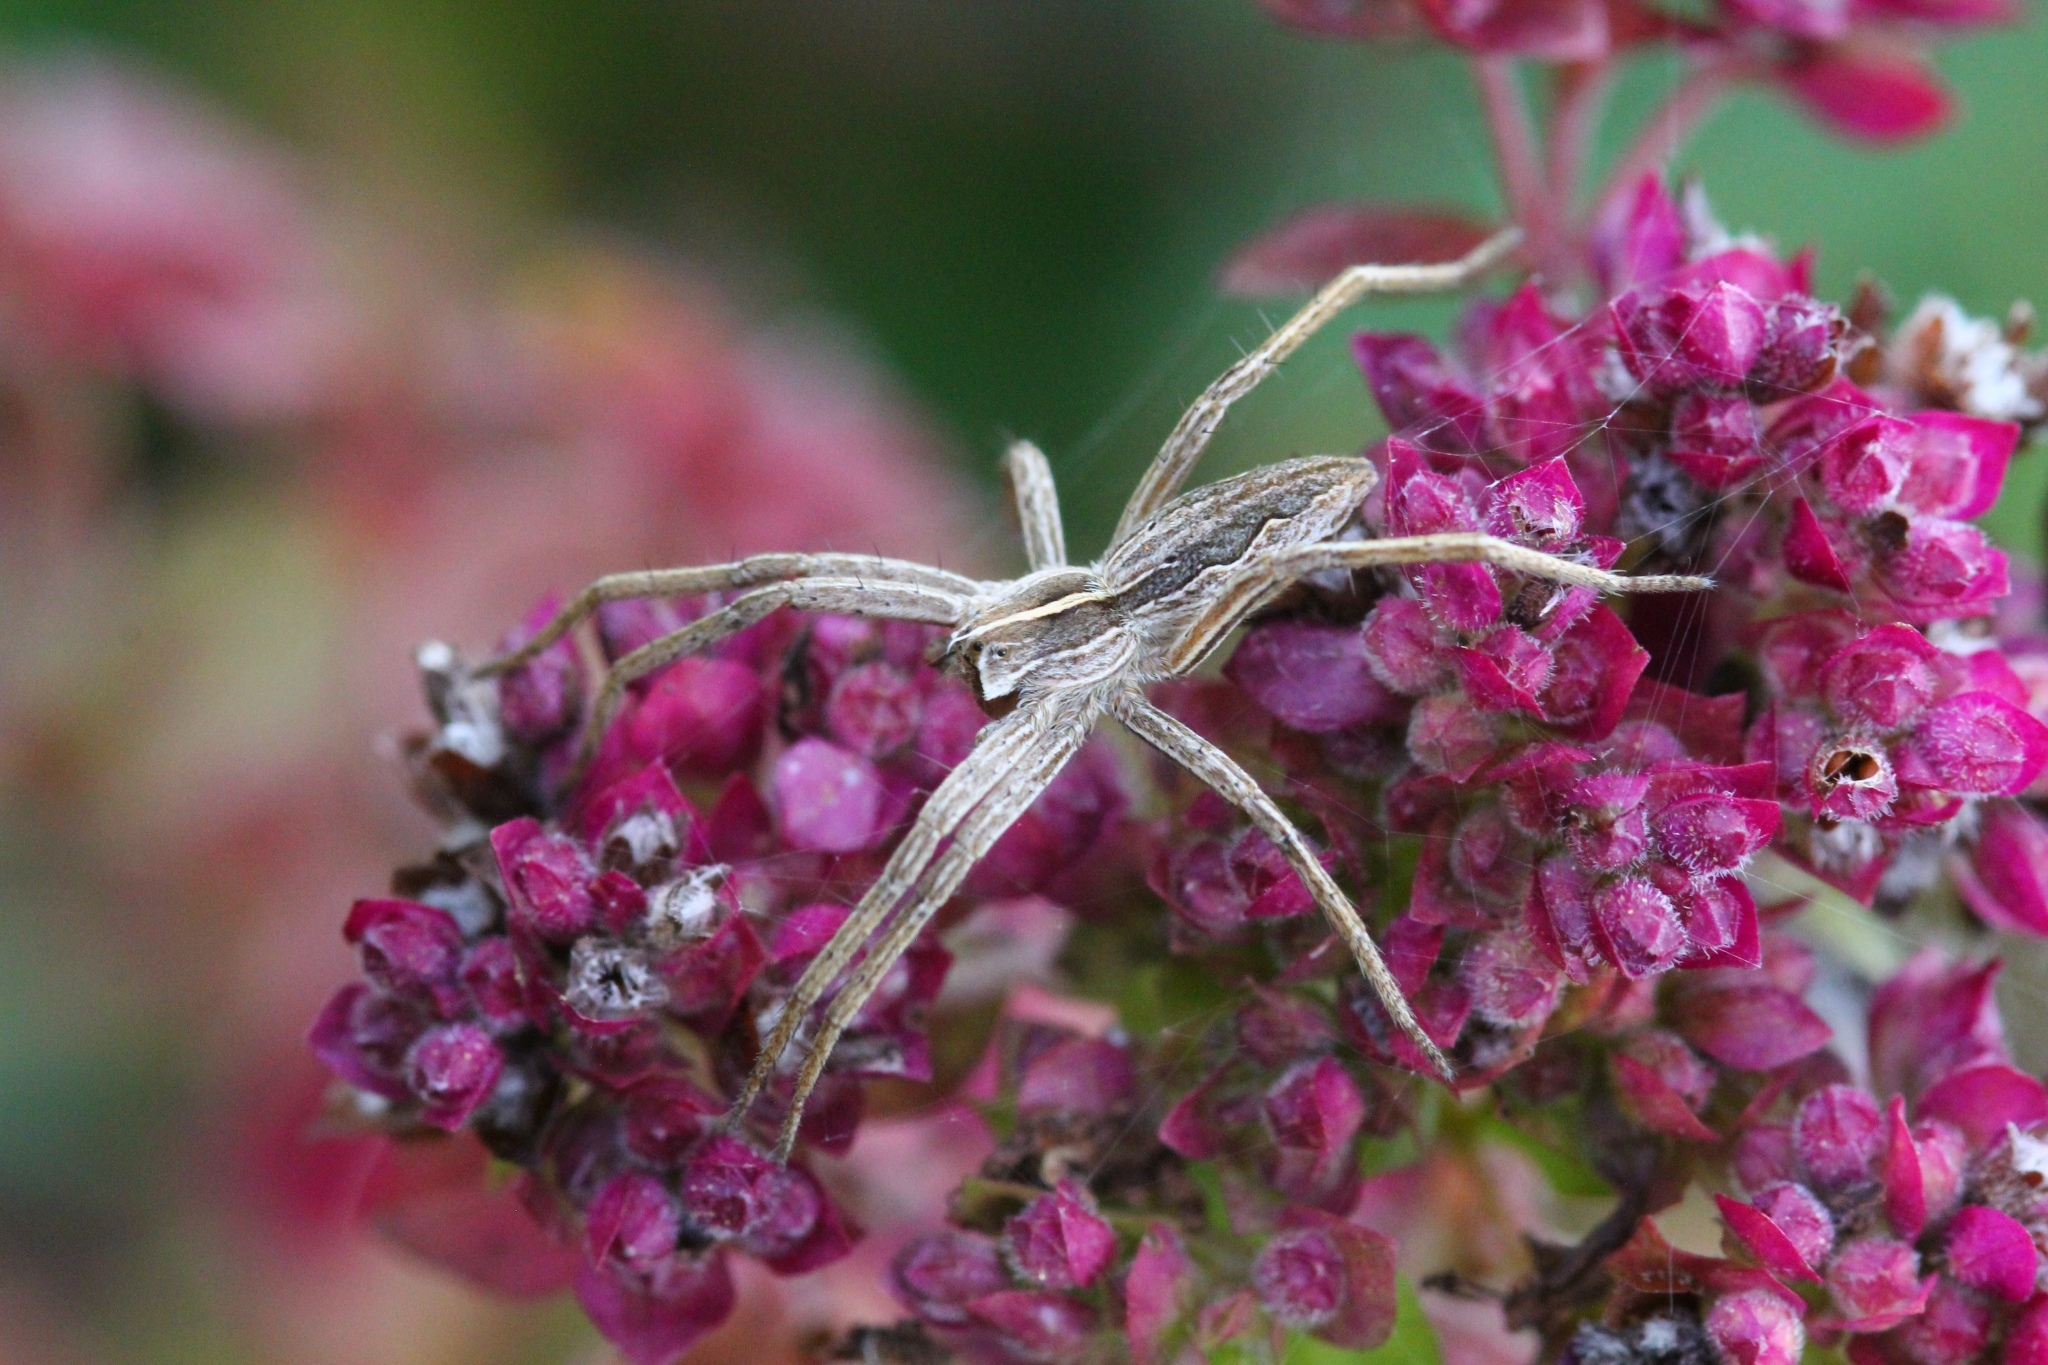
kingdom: Animalia
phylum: Arthropoda
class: Arachnida
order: Araneae
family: Pisauridae
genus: Pisaura
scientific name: Pisaura mirabilis
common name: Tent spider
